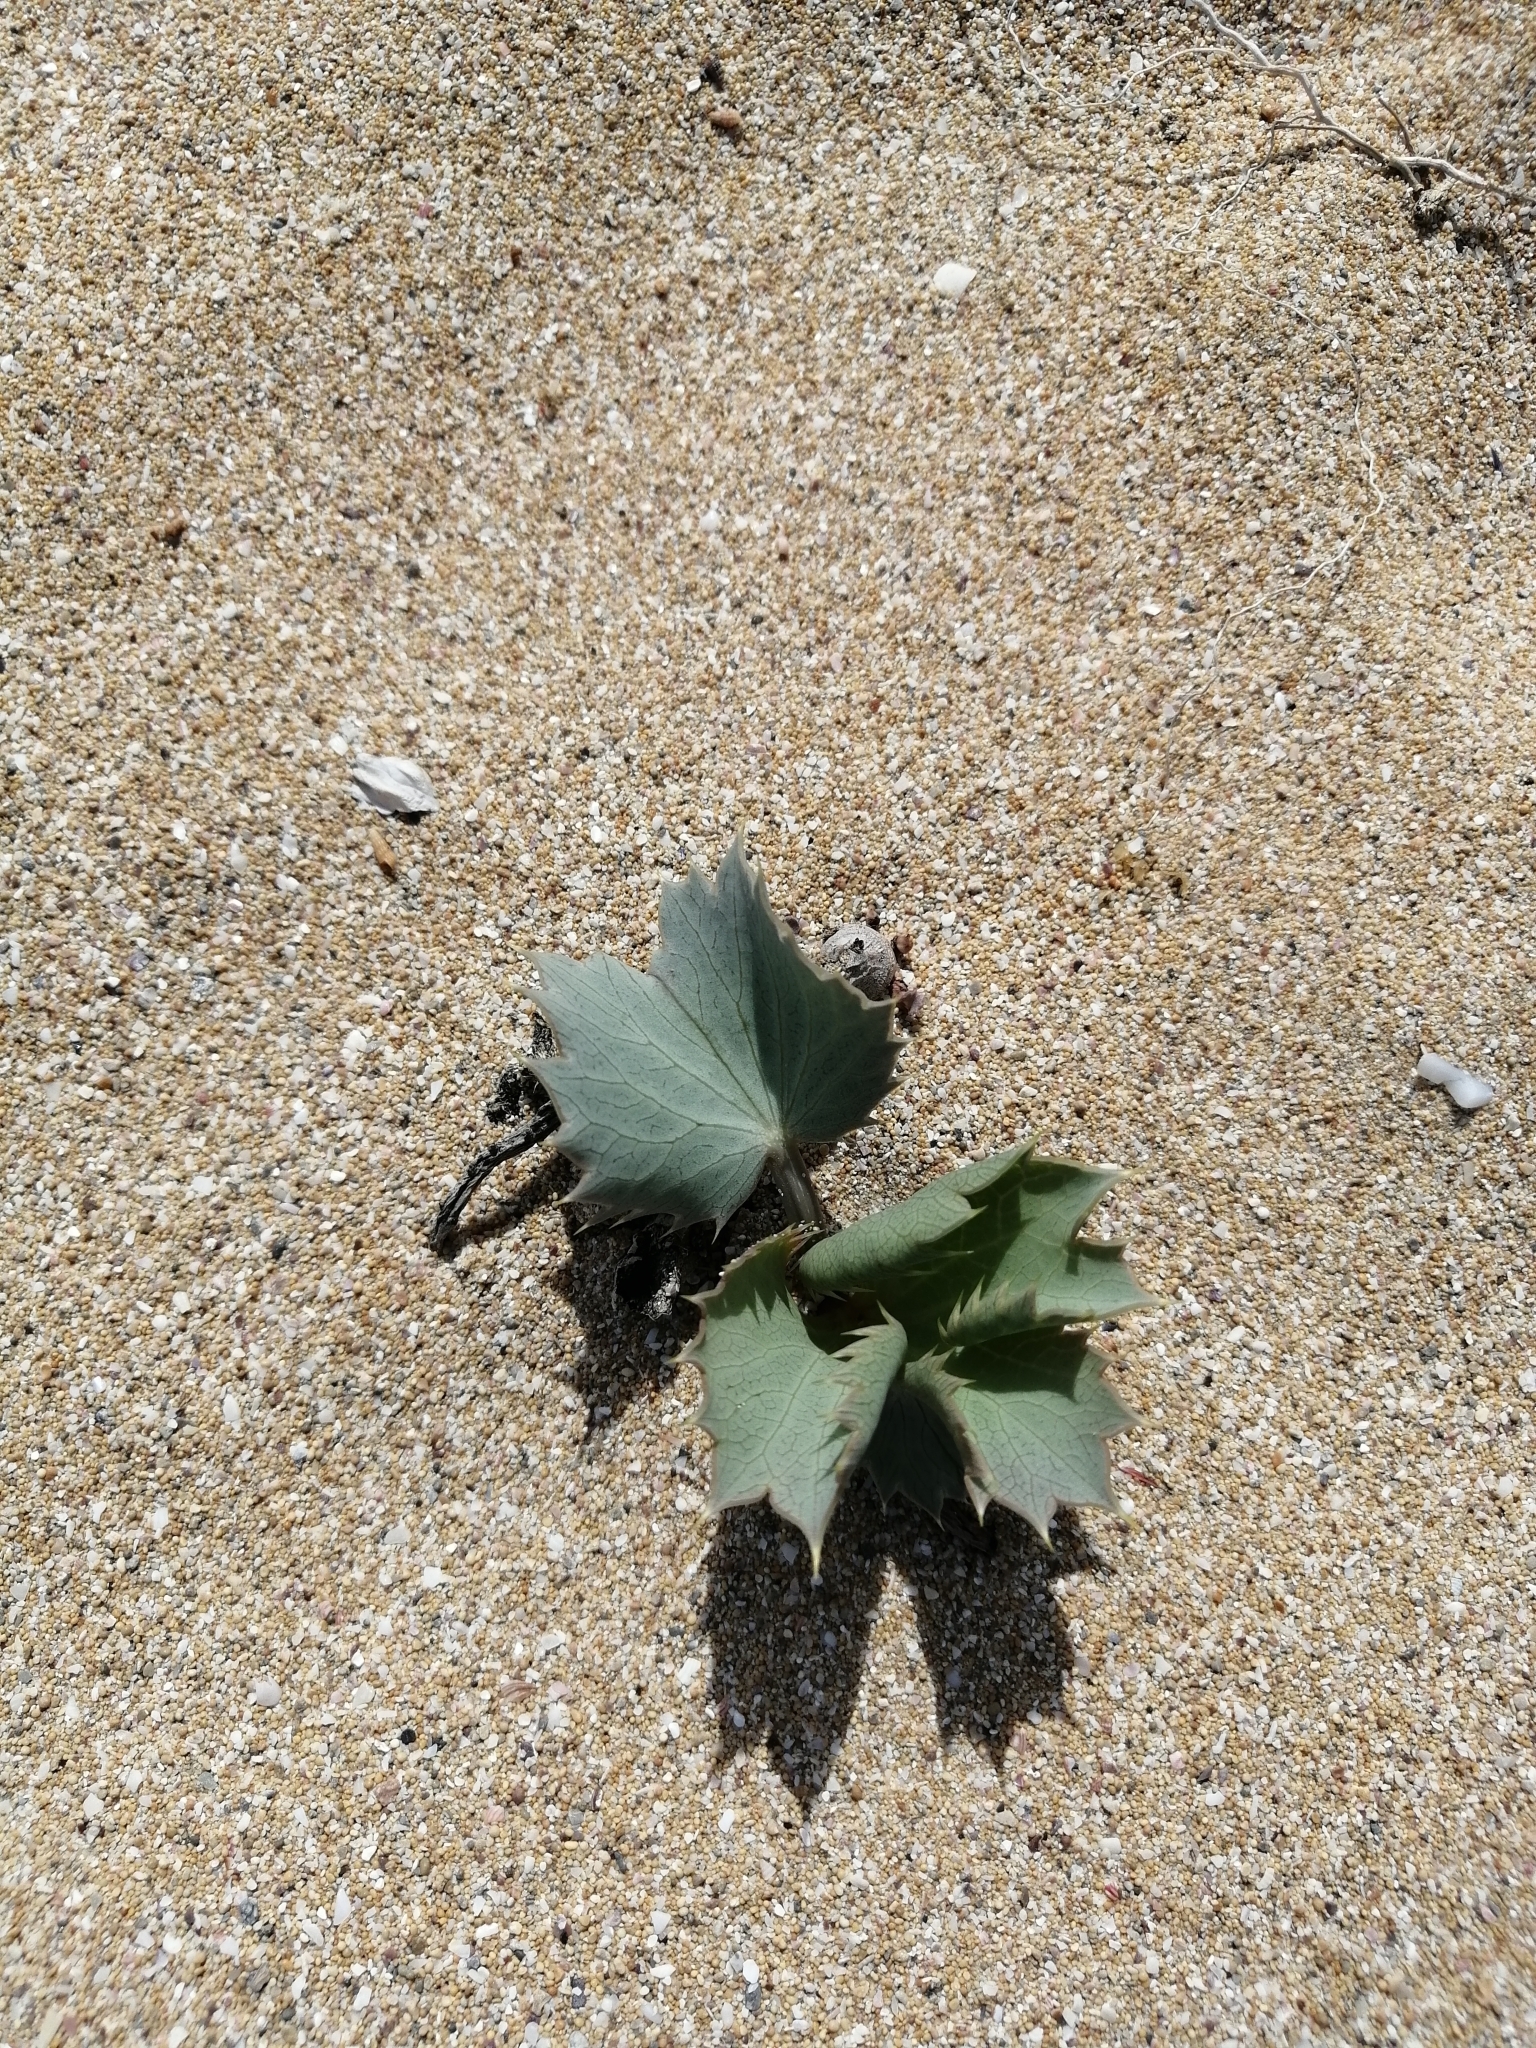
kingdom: Plantae
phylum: Tracheophyta
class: Magnoliopsida
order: Apiales
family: Apiaceae
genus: Eryngium
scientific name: Eryngium maritimum
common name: Sea-holly
